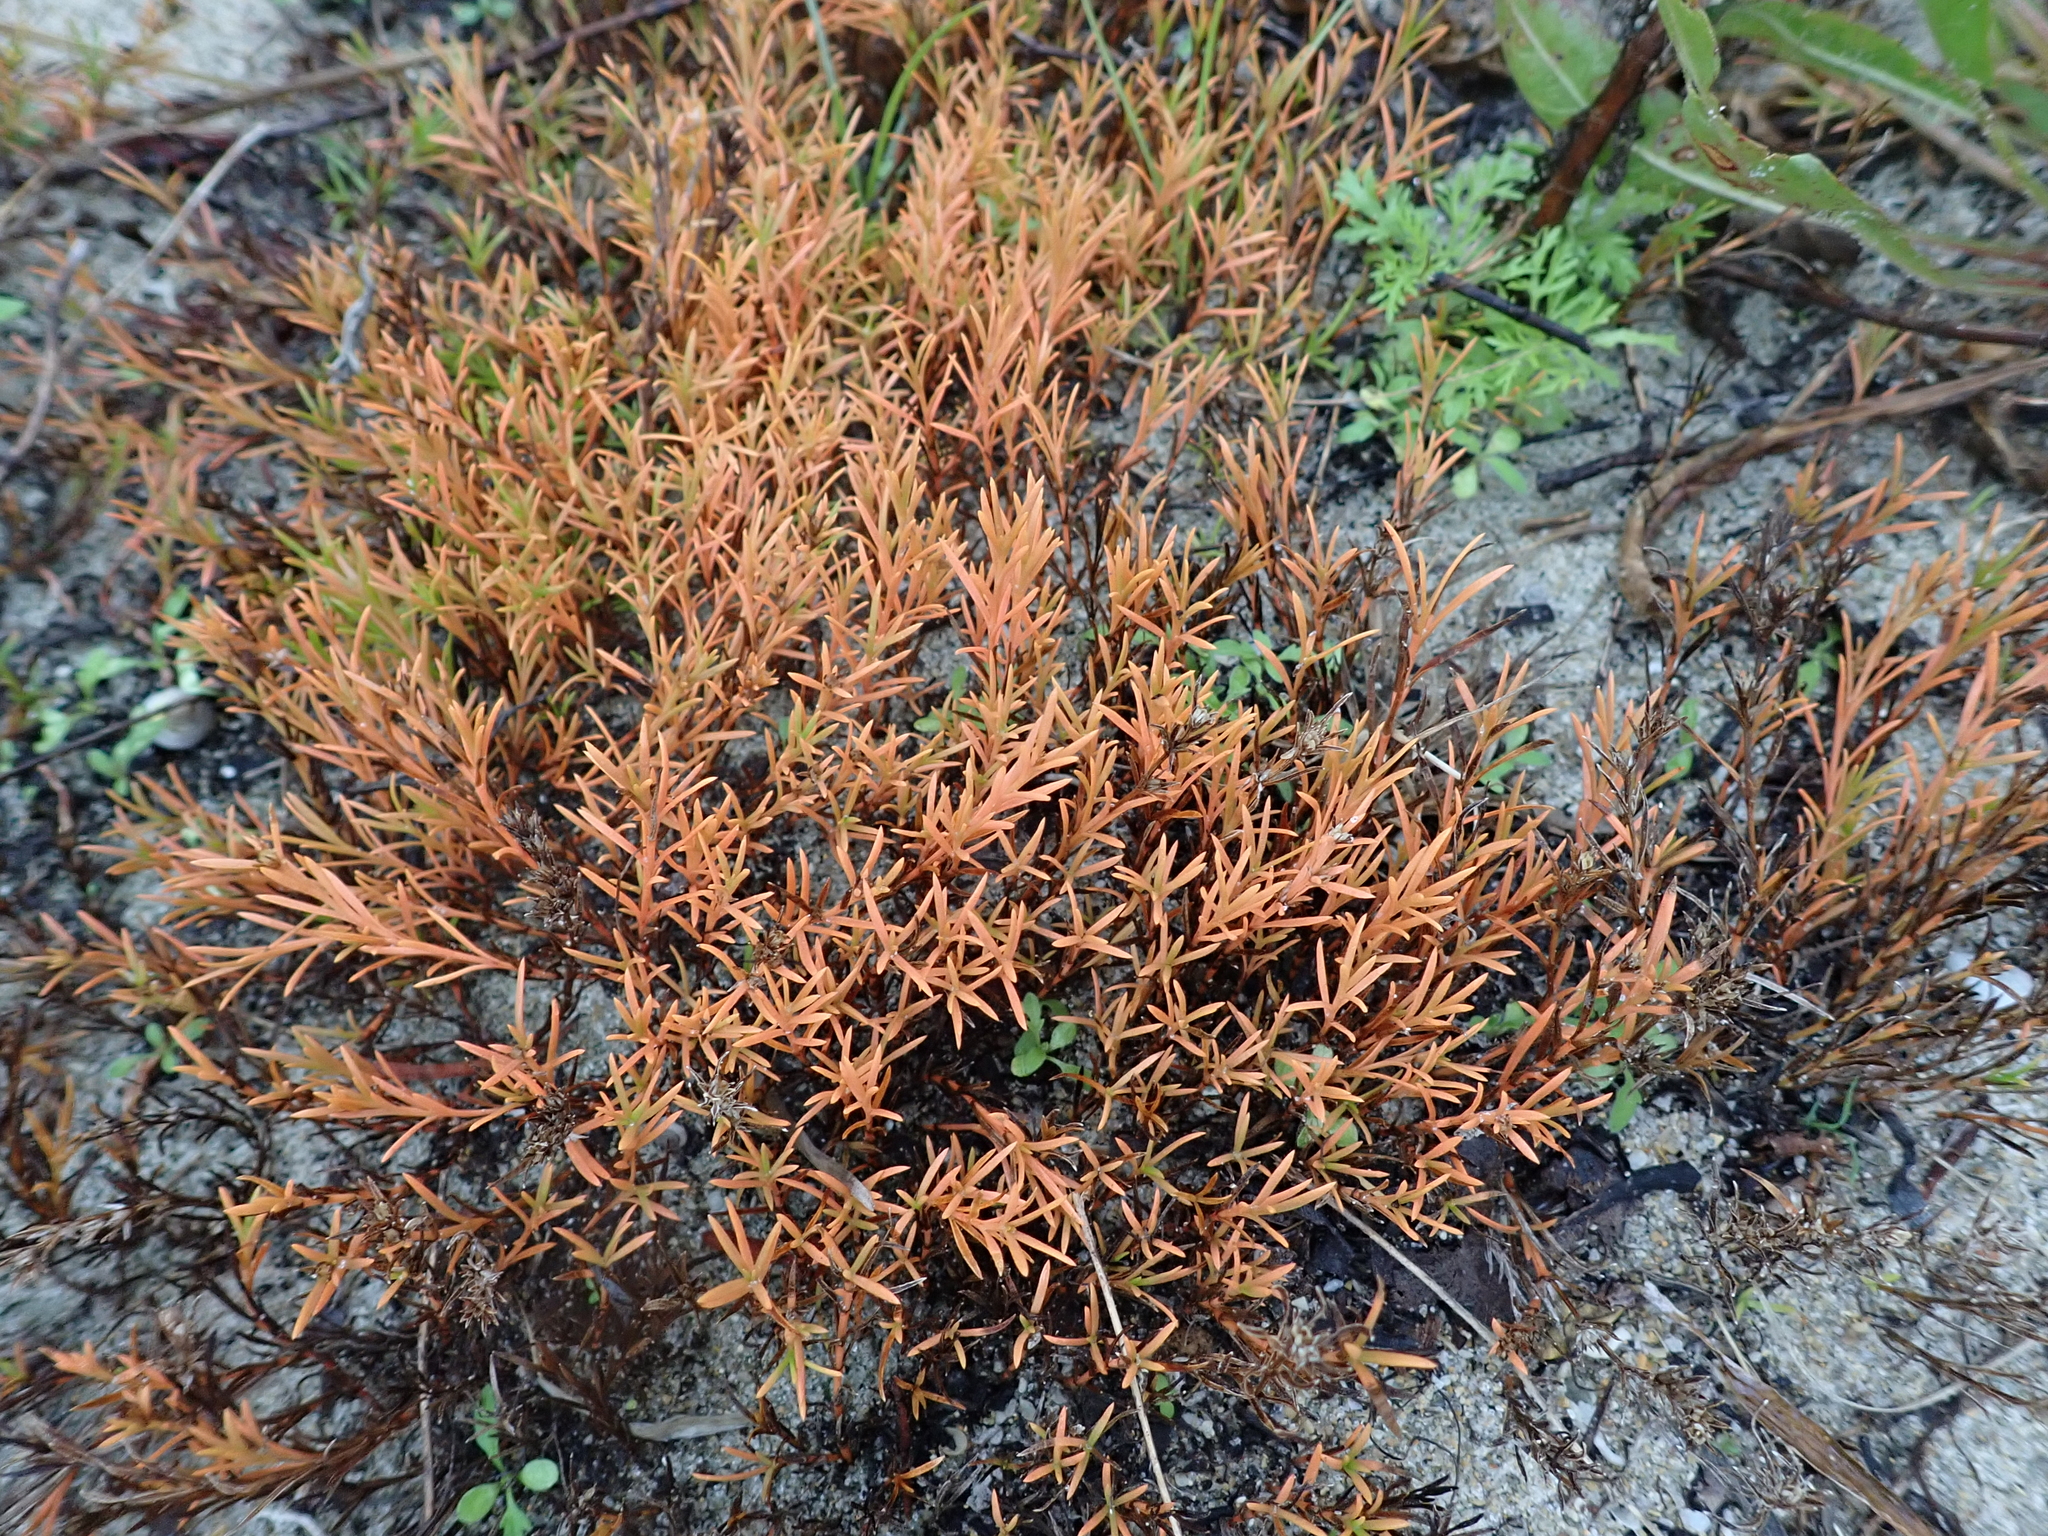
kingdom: Plantae
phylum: Tracheophyta
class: Magnoliopsida
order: Lamiales
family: Tetrachondraceae
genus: Polypremum
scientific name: Polypremum procumbens
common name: Juniper-leaf
